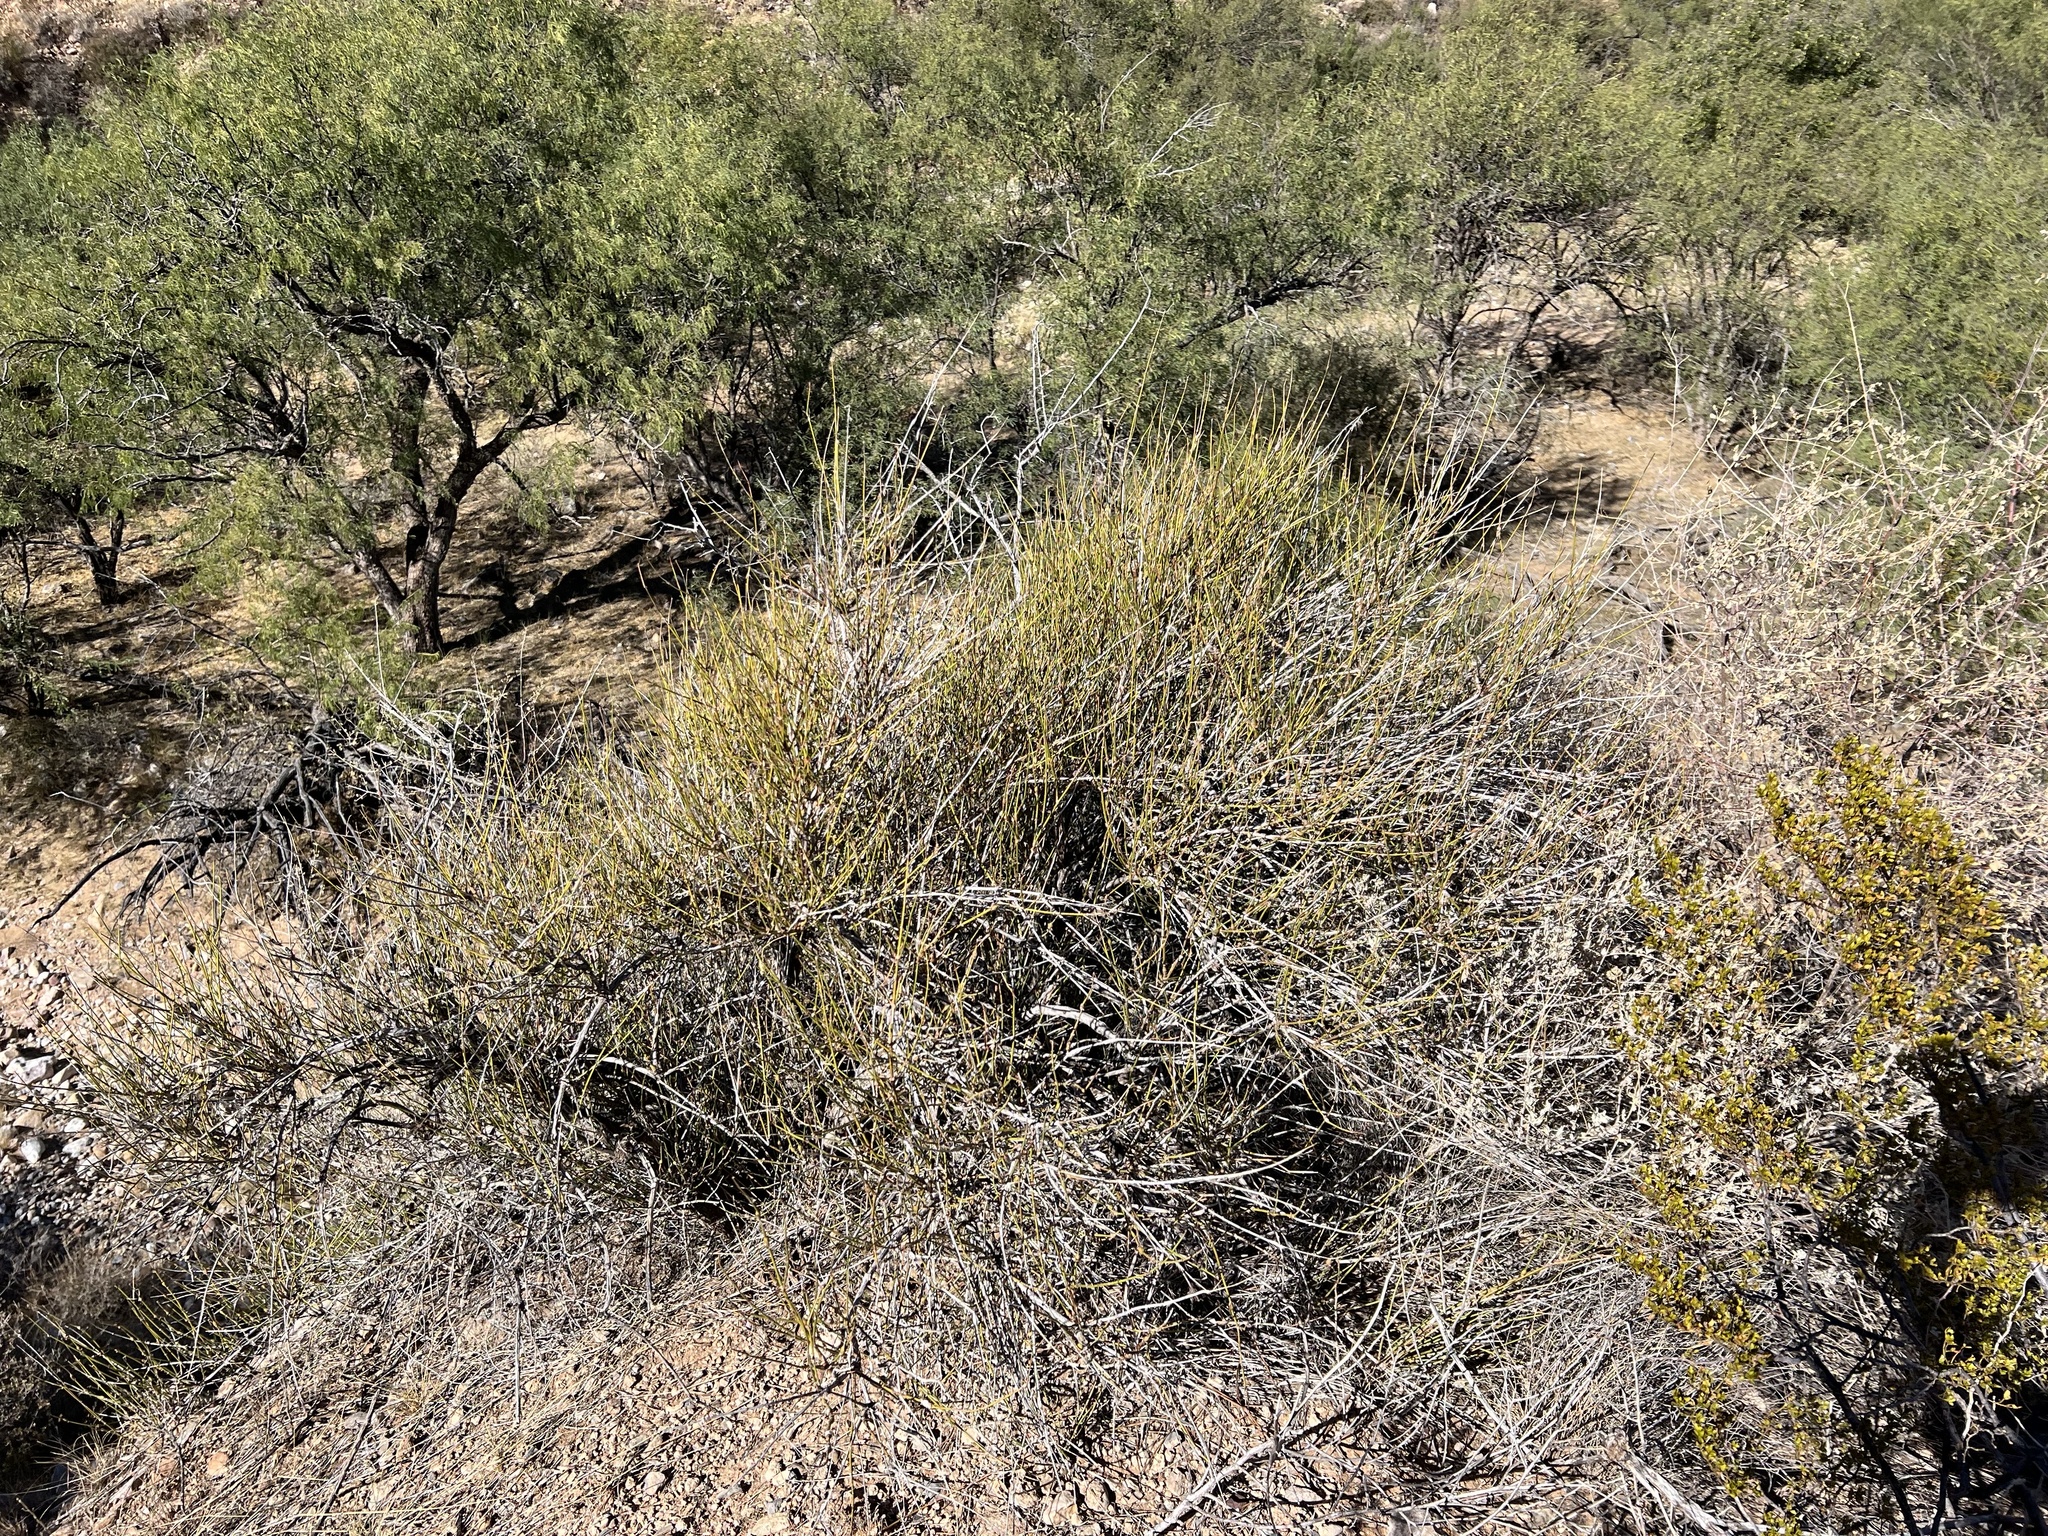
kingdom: Plantae
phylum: Tracheophyta
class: Gnetopsida
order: Ephedrales
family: Ephedraceae
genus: Ephedra
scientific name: Ephedra trifurca
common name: Mexican-tea
